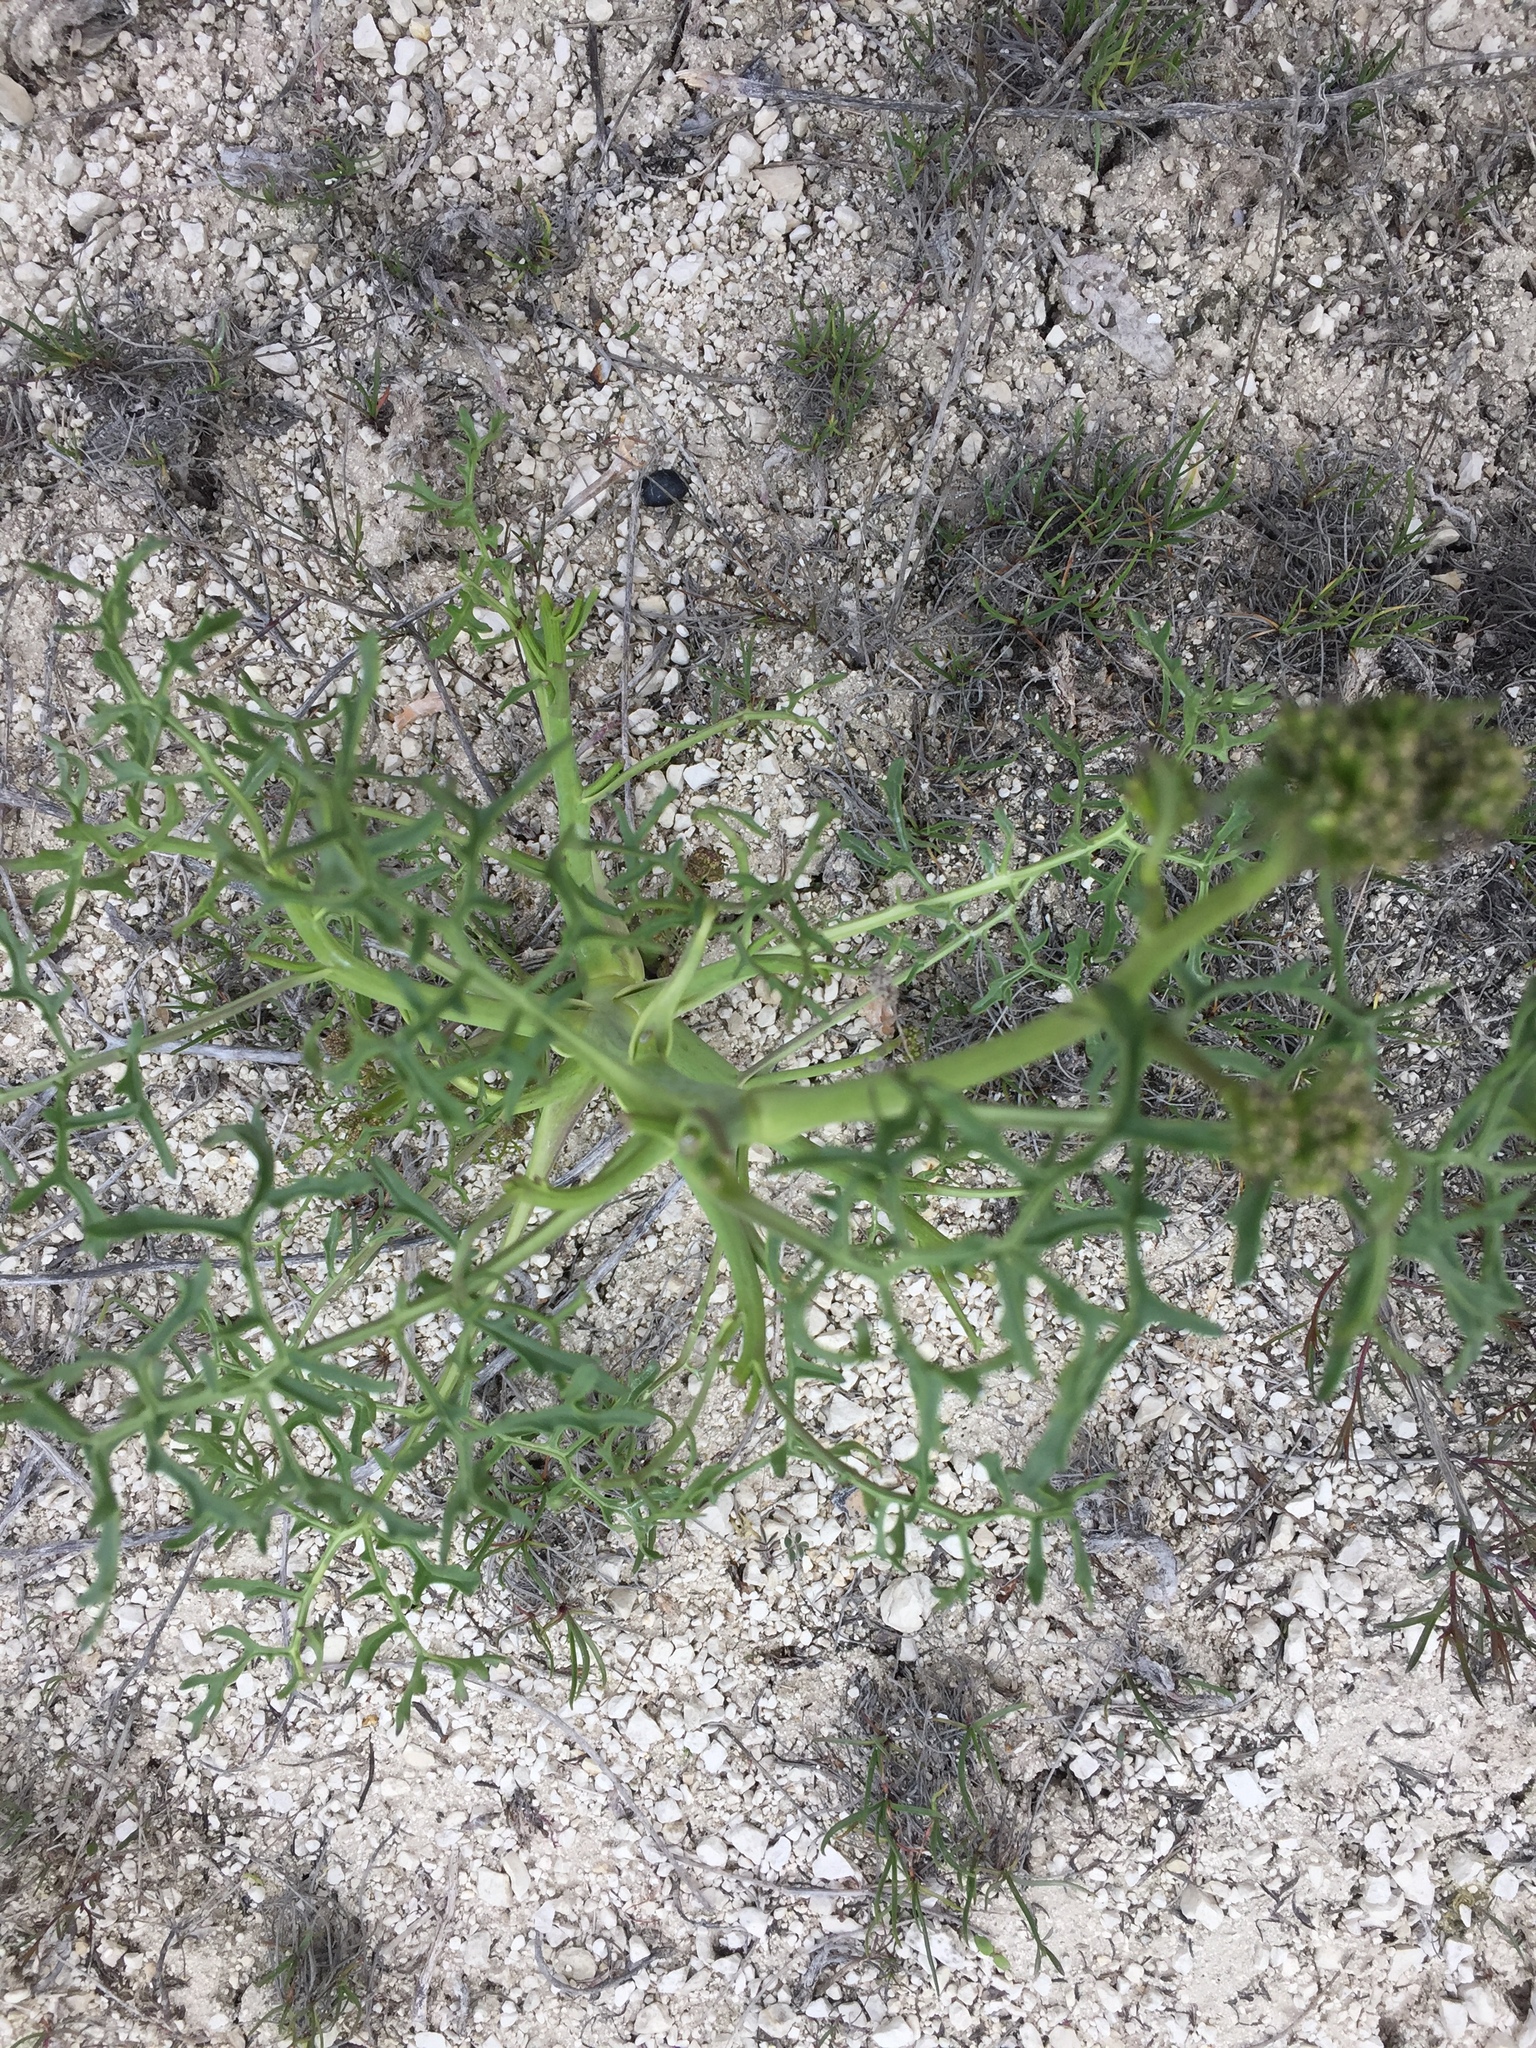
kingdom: Plantae
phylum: Tracheophyta
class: Magnoliopsida
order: Brassicales
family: Brassicaceae
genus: Crambe
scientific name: Crambe tataria
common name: Tartarian breadplant
